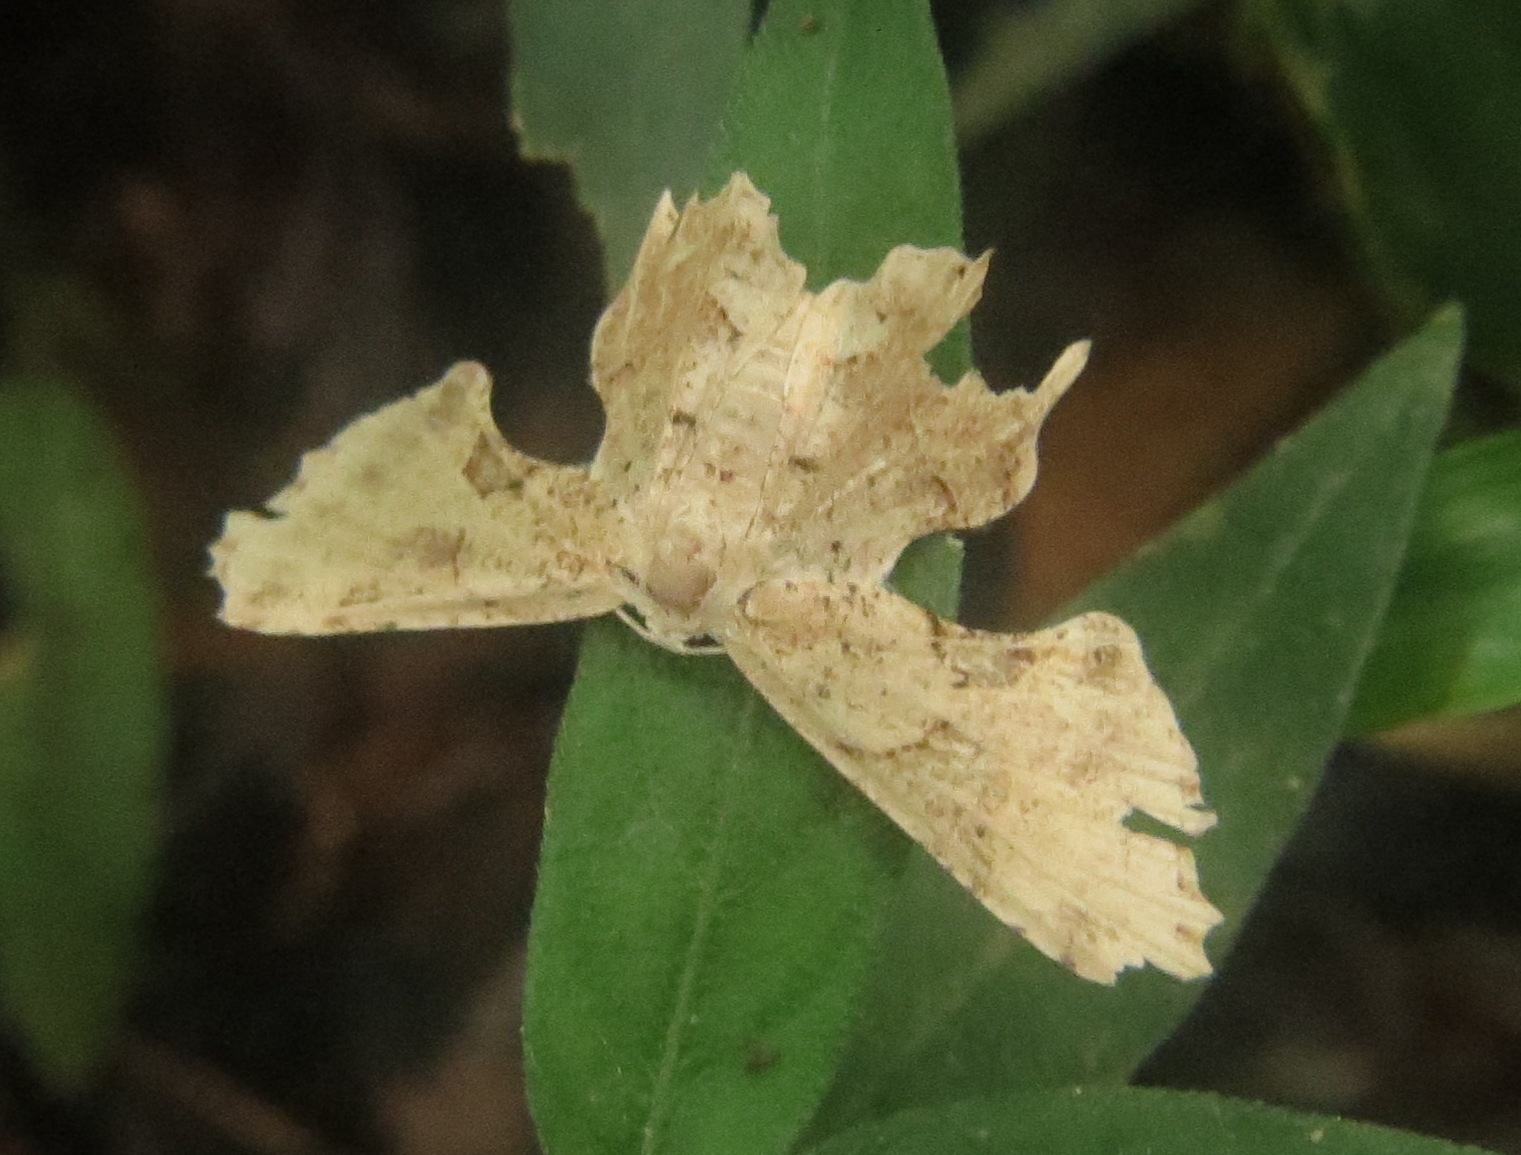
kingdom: Animalia
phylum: Arthropoda
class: Insecta
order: Lepidoptera
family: Uraniidae
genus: Epiplema
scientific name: Epiplema acutangularia
